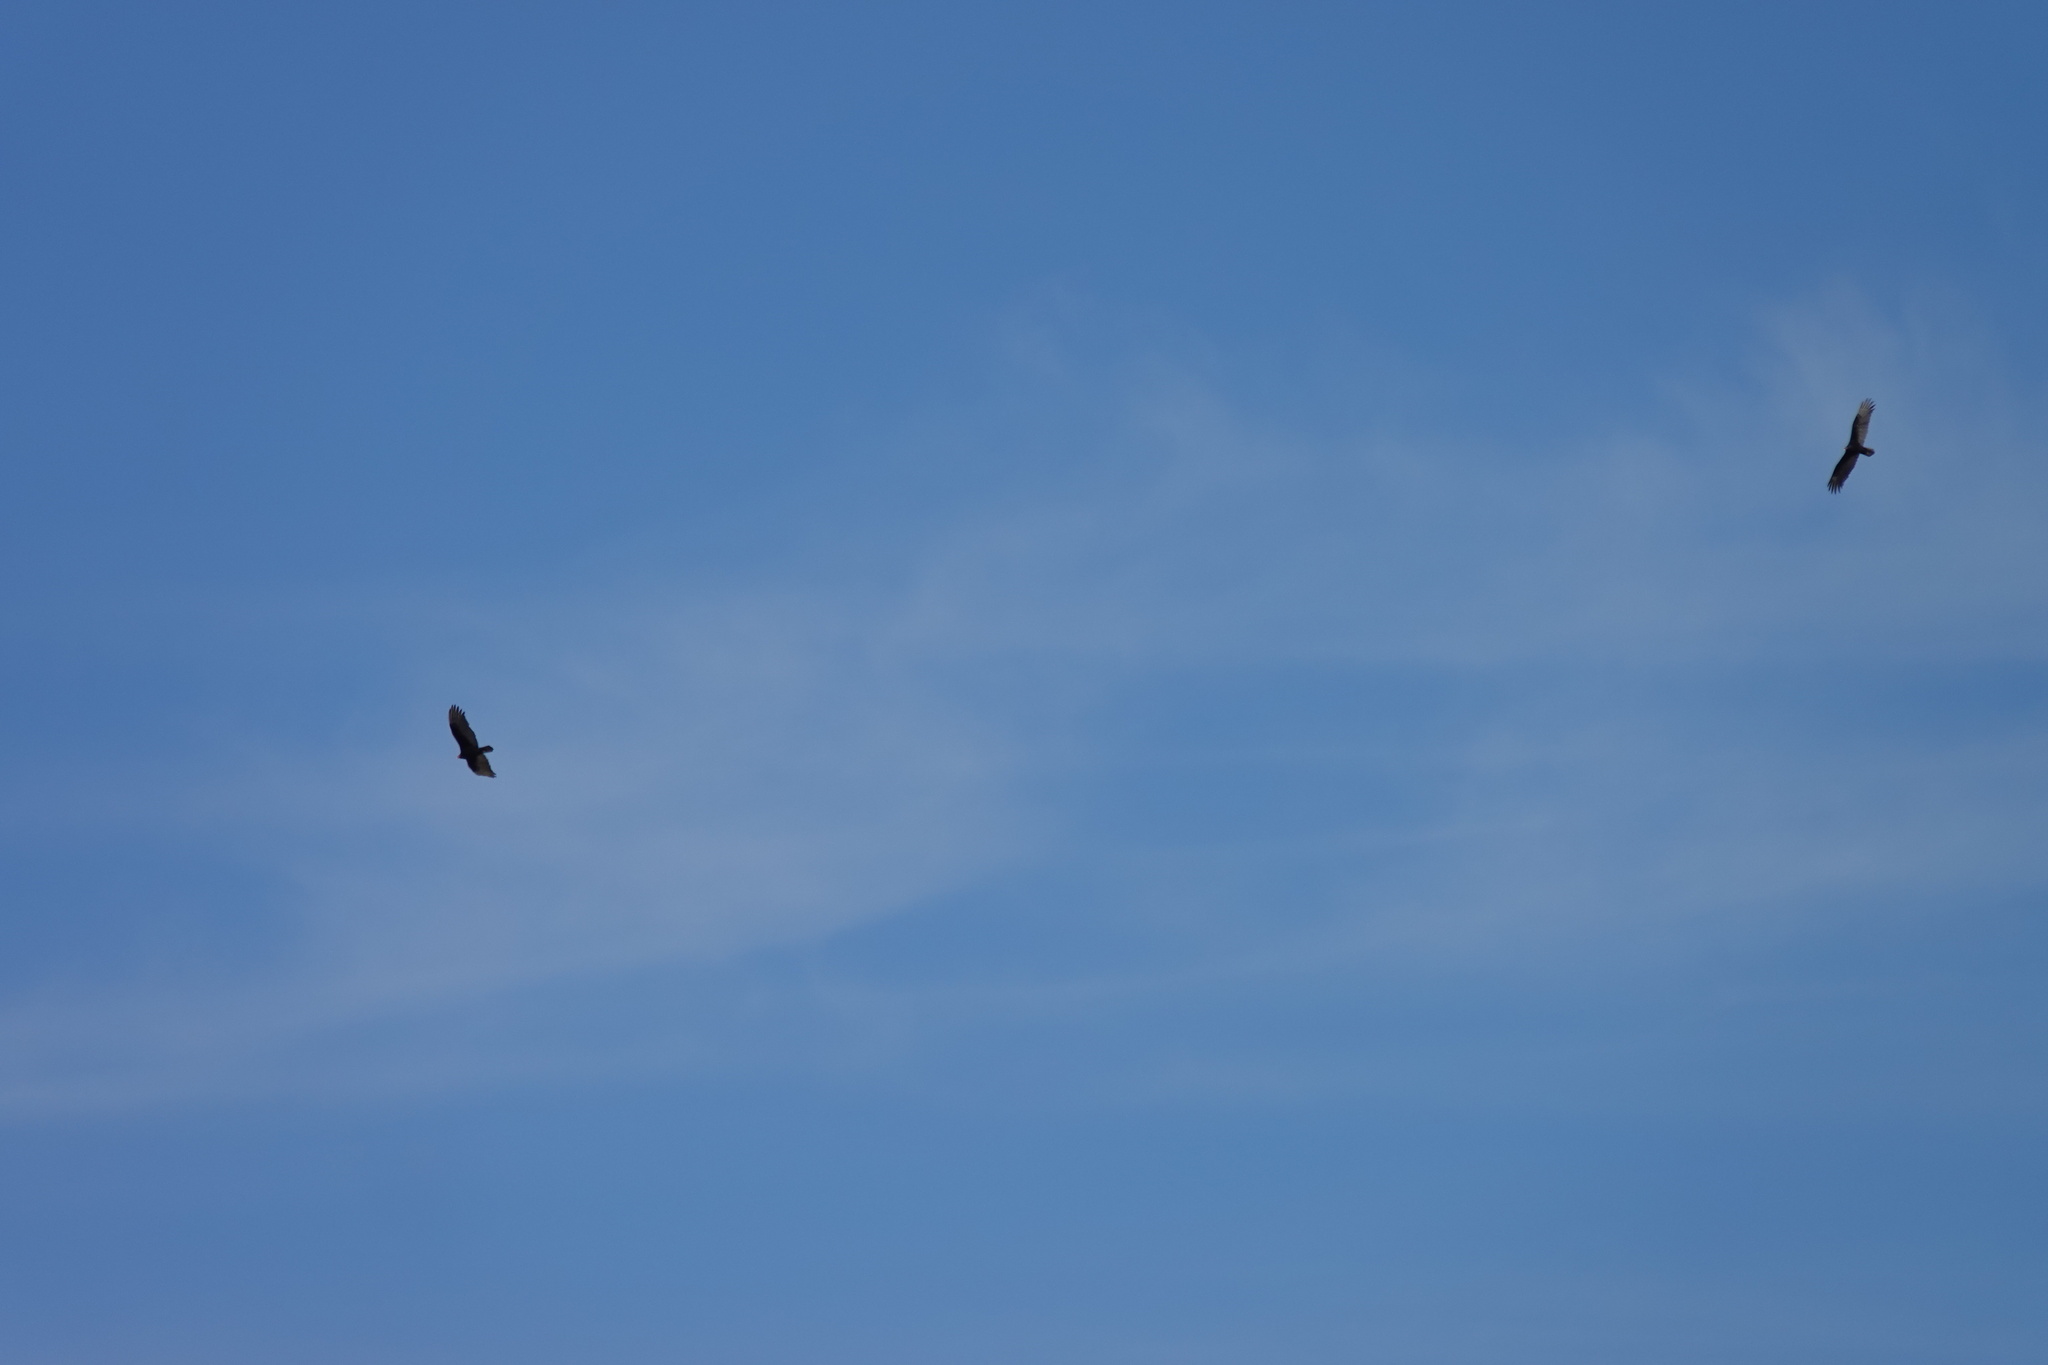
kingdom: Animalia
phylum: Chordata
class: Aves
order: Accipitriformes
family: Cathartidae
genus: Cathartes
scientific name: Cathartes aura
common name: Turkey vulture
